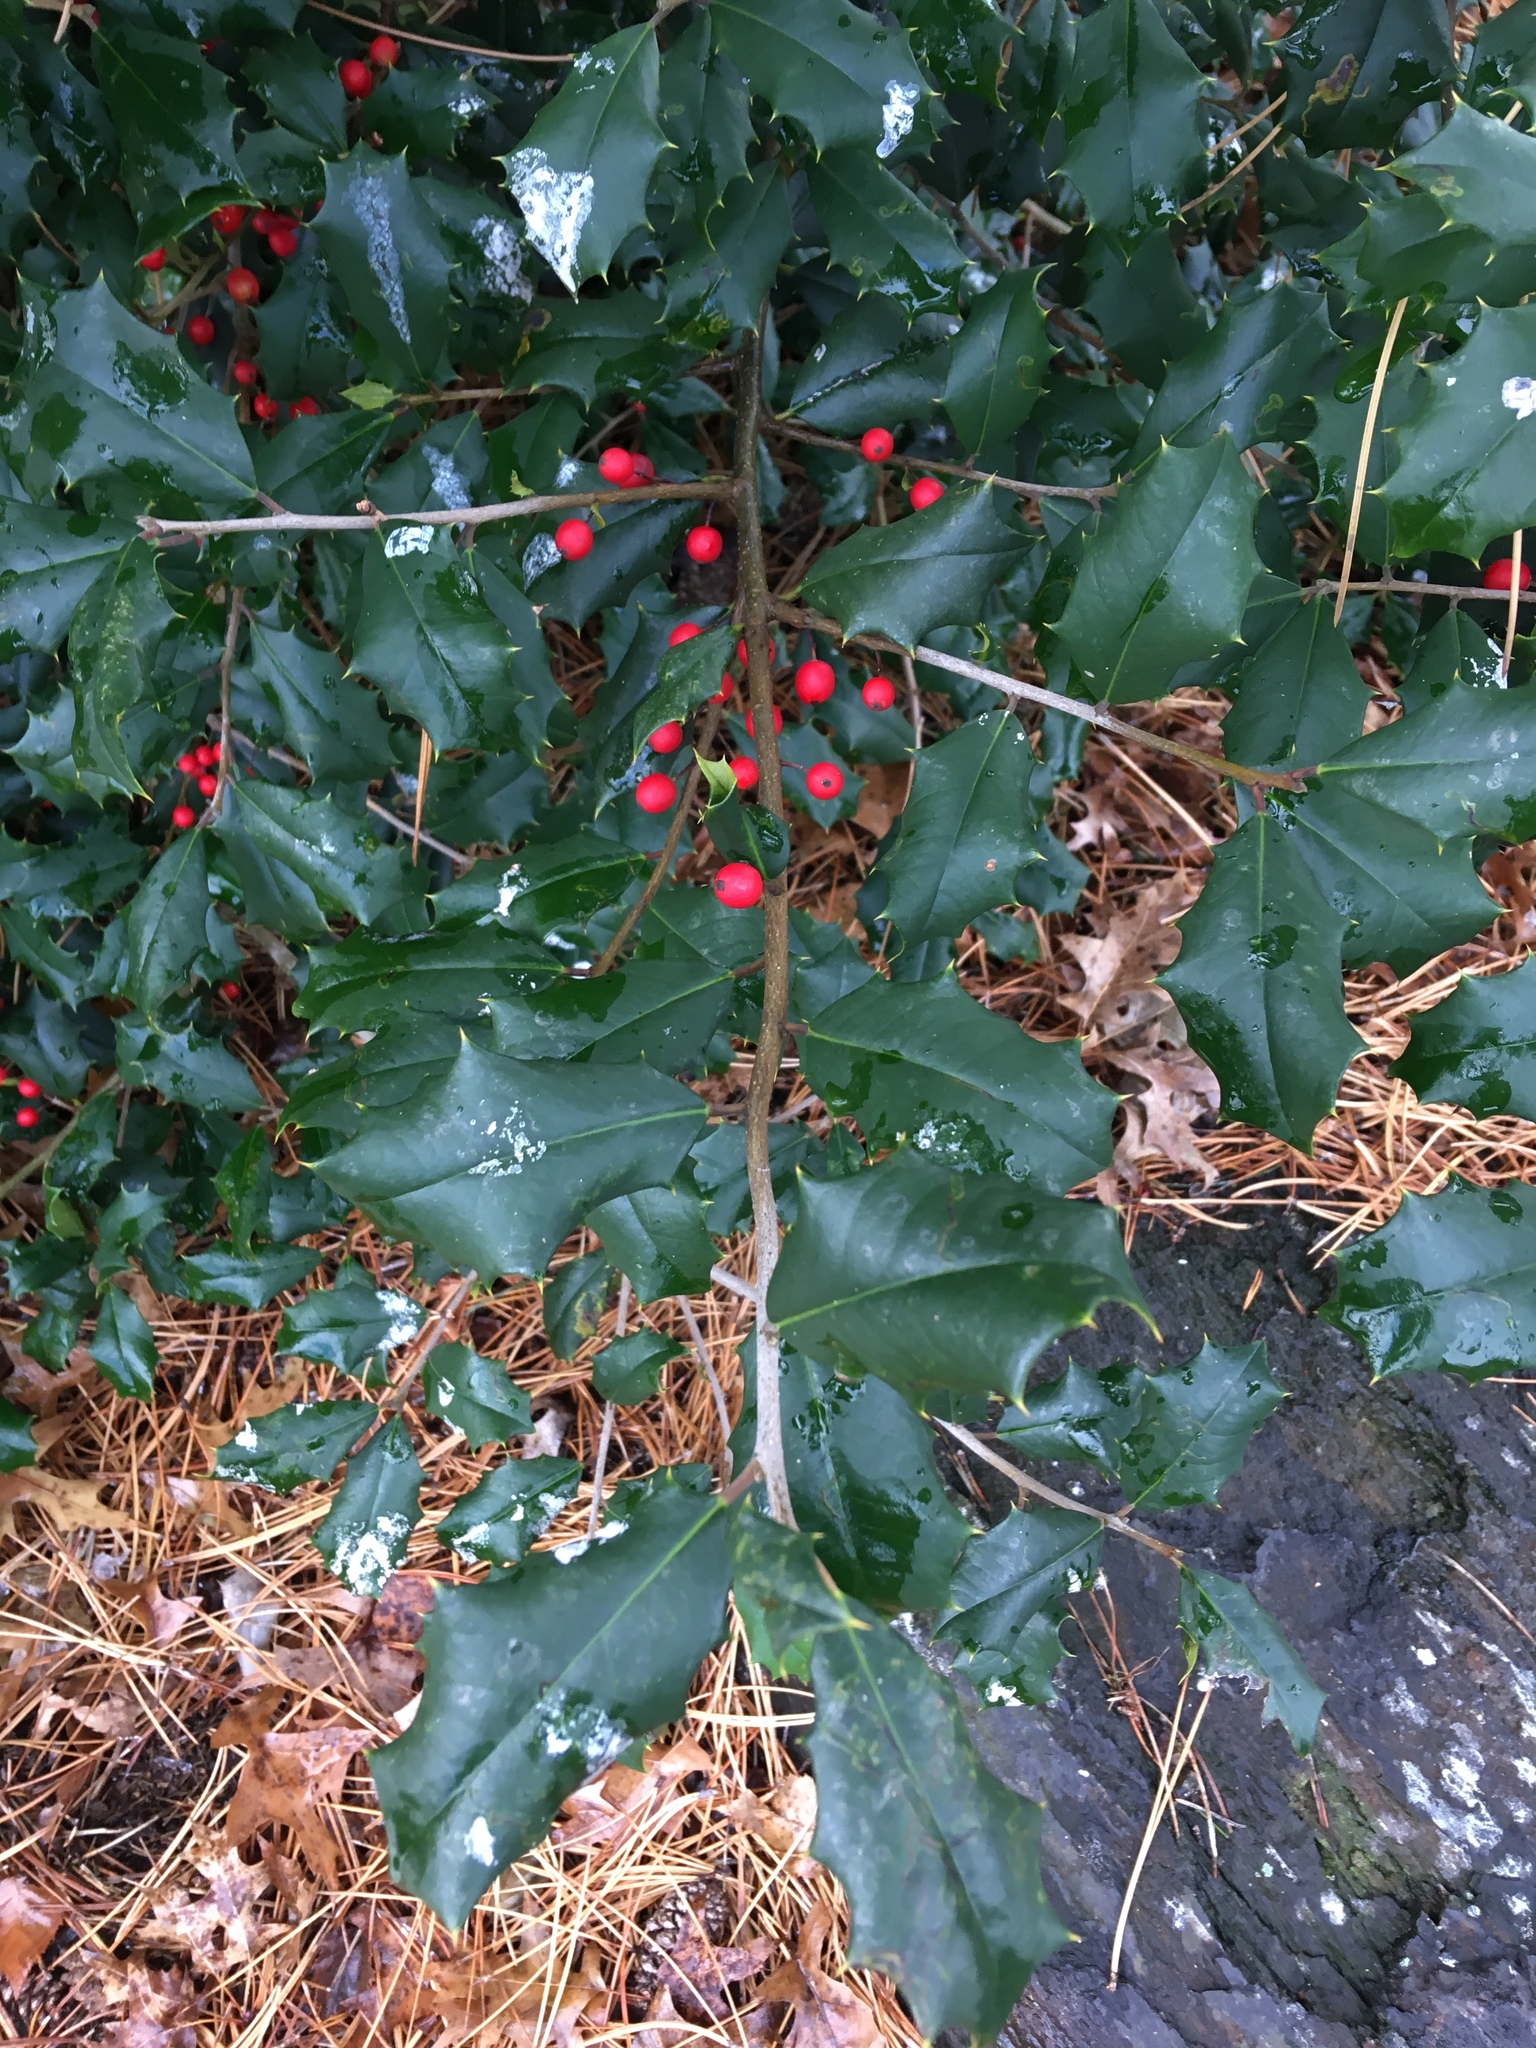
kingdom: Plantae
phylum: Tracheophyta
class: Magnoliopsida
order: Aquifoliales
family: Aquifoliaceae
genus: Ilex
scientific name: Ilex opaca
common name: American holly
